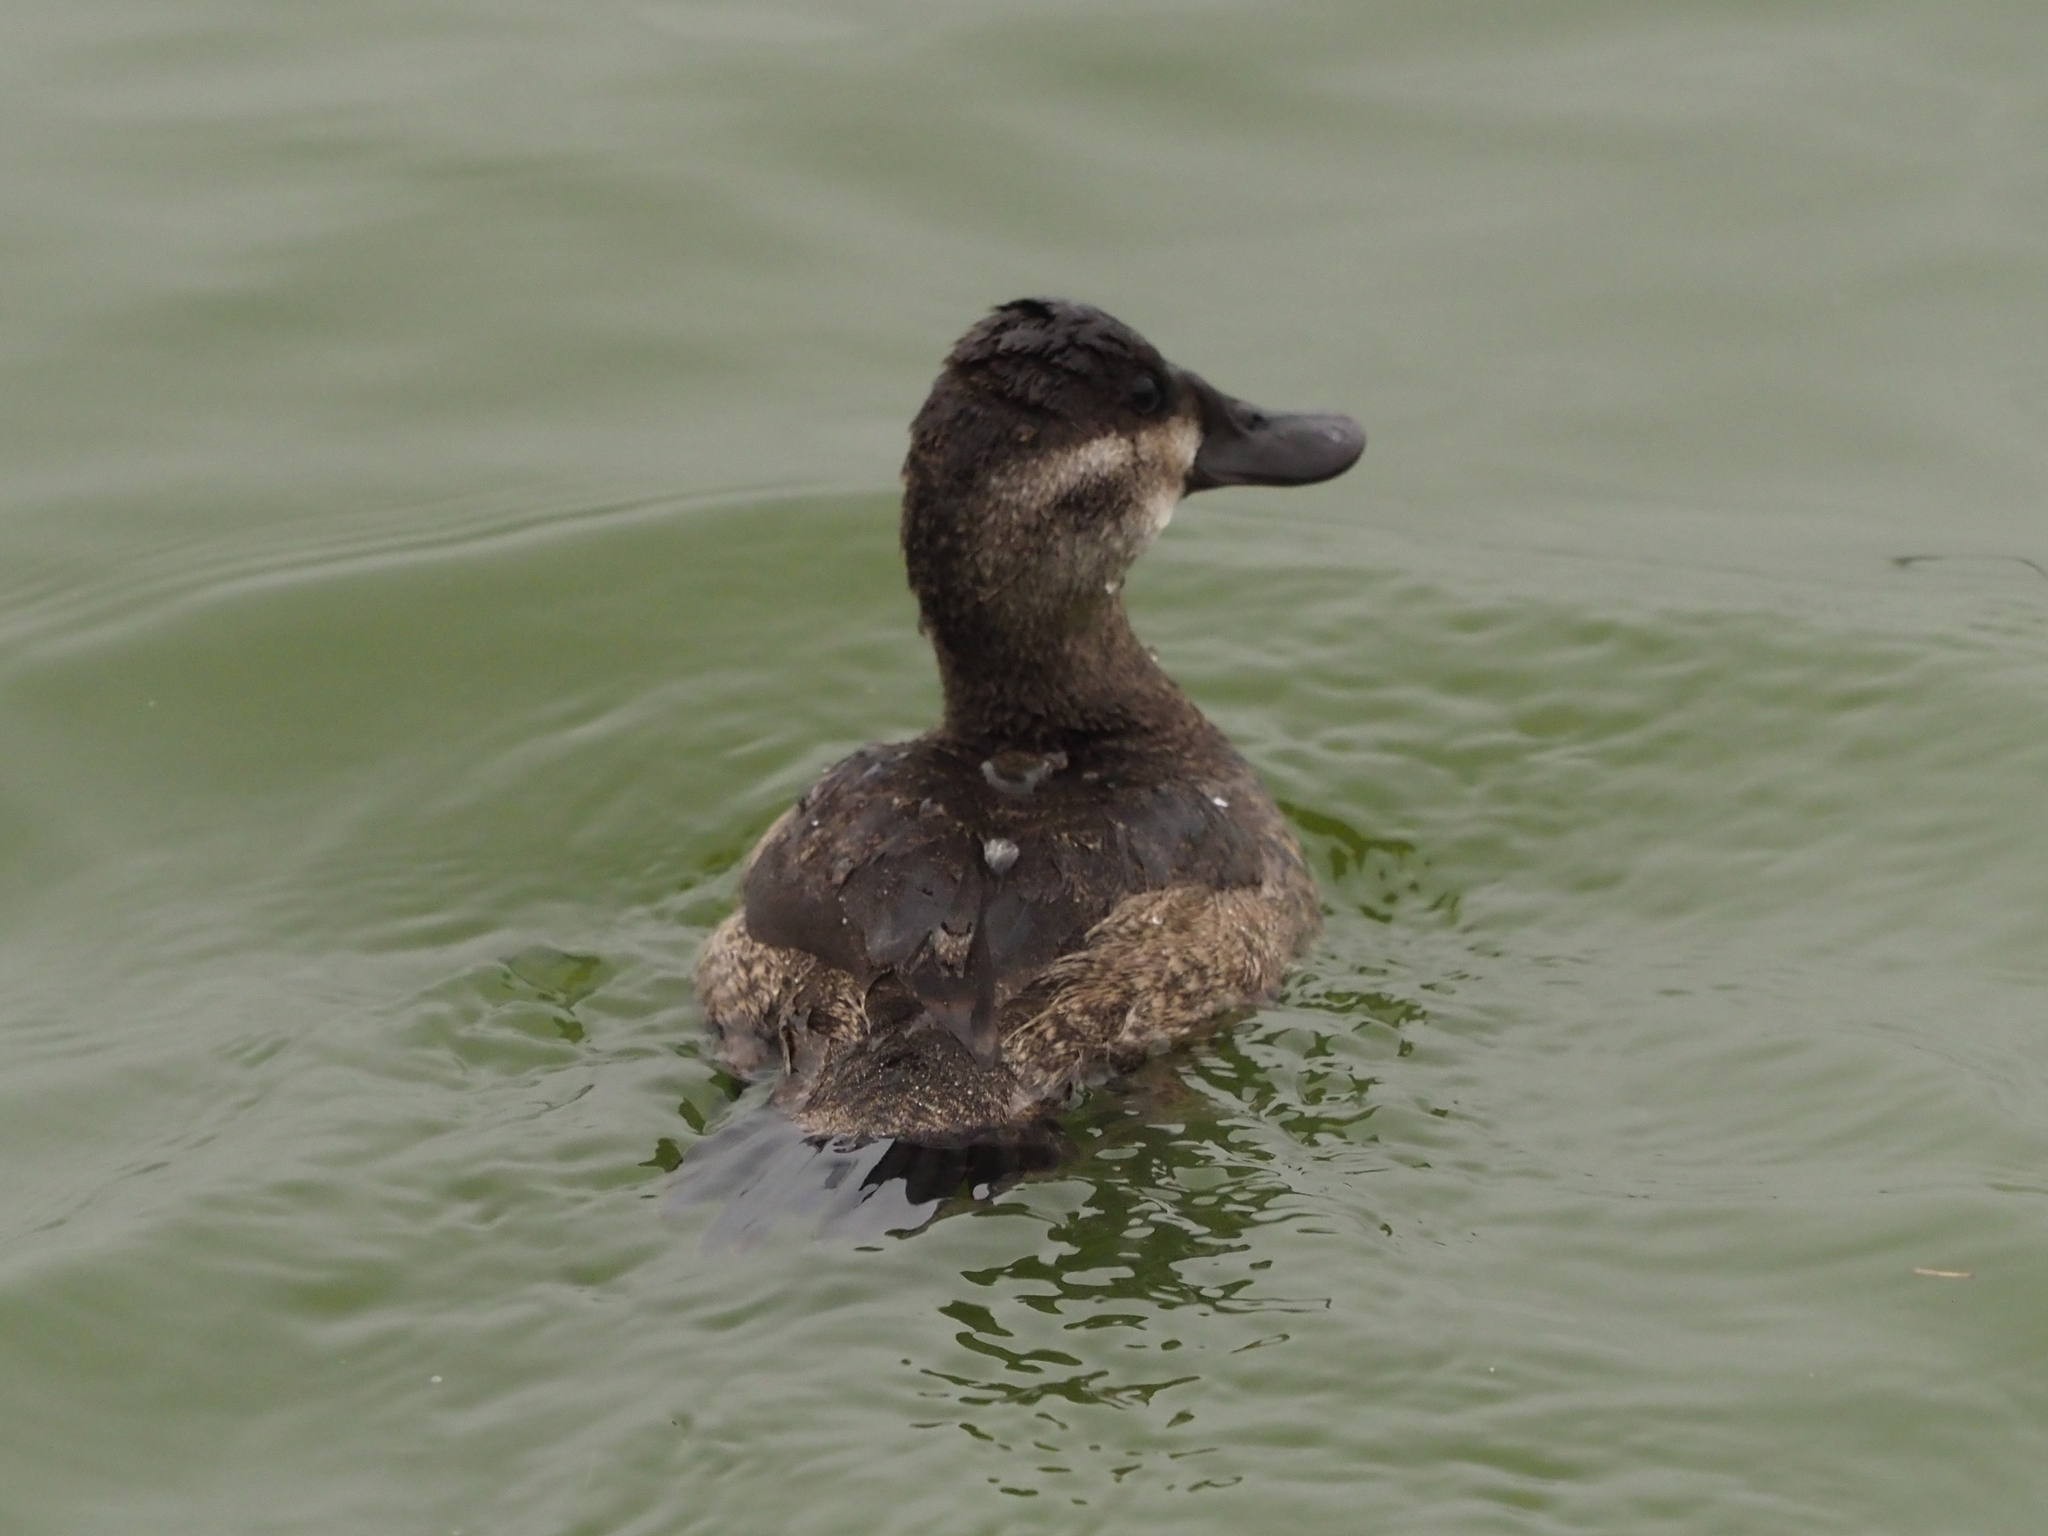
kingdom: Animalia
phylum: Chordata
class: Aves
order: Anseriformes
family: Anatidae
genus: Oxyura
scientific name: Oxyura jamaicensis
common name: Ruddy duck
